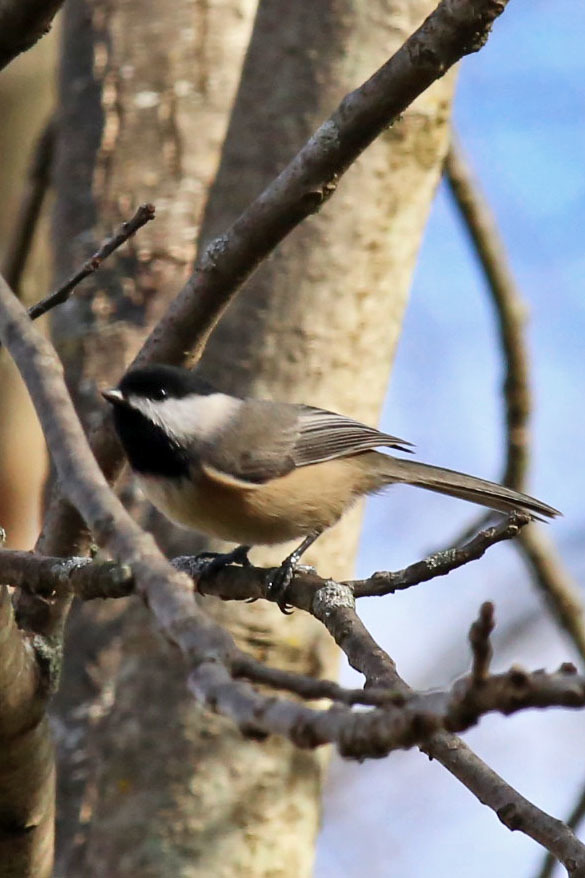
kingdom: Animalia
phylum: Chordata
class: Aves
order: Passeriformes
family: Paridae
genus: Poecile
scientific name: Poecile carolinensis
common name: Carolina chickadee
